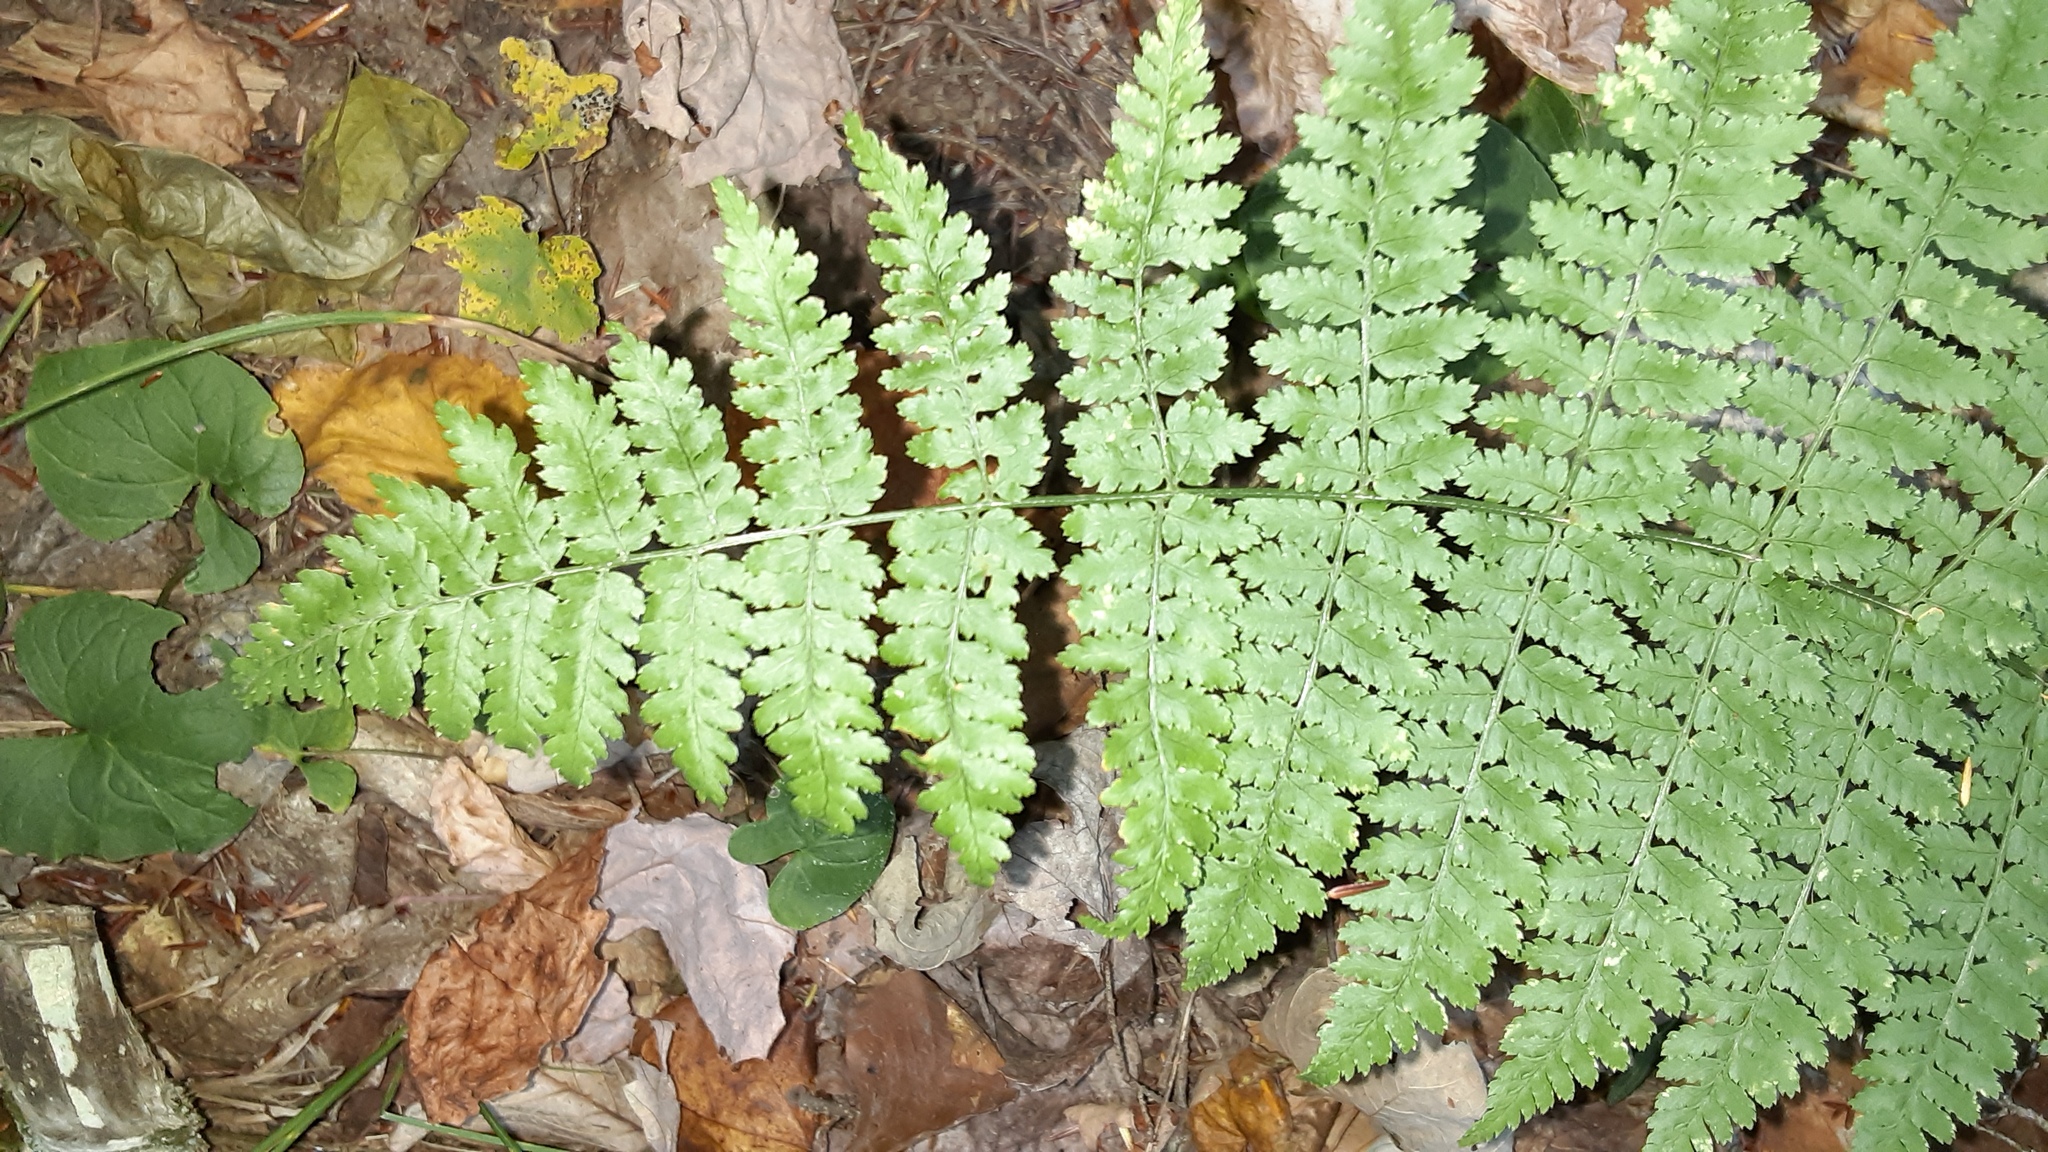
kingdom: Plantae
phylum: Tracheophyta
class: Polypodiopsida
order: Polypodiales
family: Dryopteridaceae
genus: Dryopteris
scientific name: Dryopteris intermedia
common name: Evergreen wood fern
